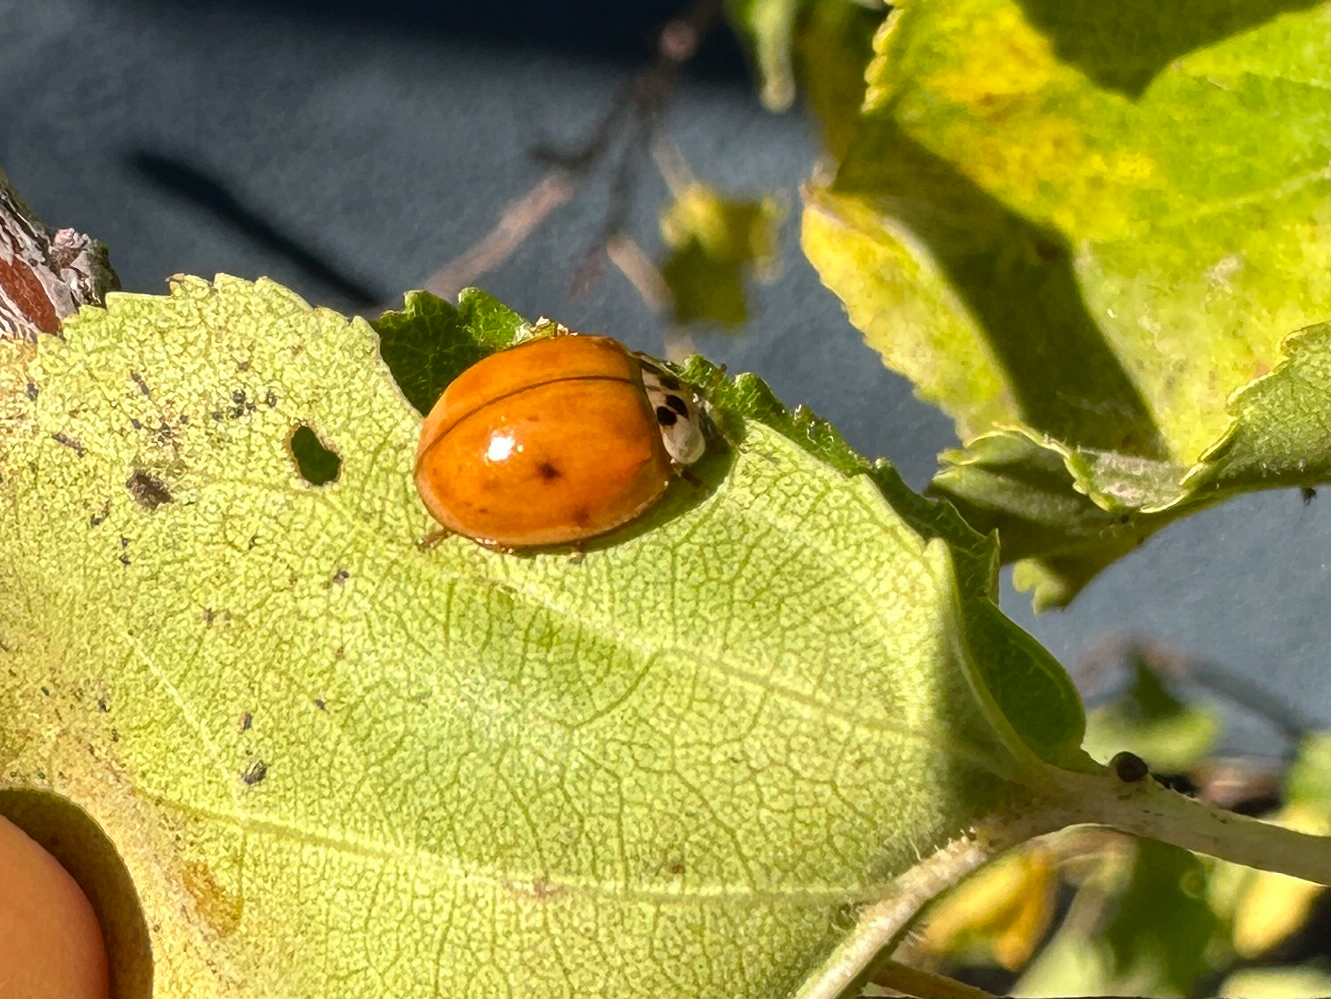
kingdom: Animalia
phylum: Arthropoda
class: Insecta
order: Coleoptera
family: Coccinellidae
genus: Harmonia
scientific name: Harmonia axyridis
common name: Harlequin ladybird
